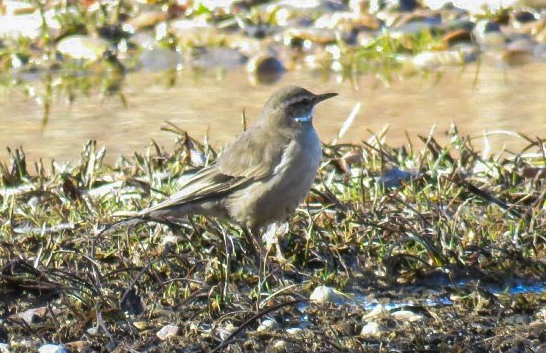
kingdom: Animalia
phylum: Chordata
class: Aves
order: Passeriformes
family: Furnariidae
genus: Cinclodes
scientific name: Cinclodes fuscus
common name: Buff-winged cinclodes
